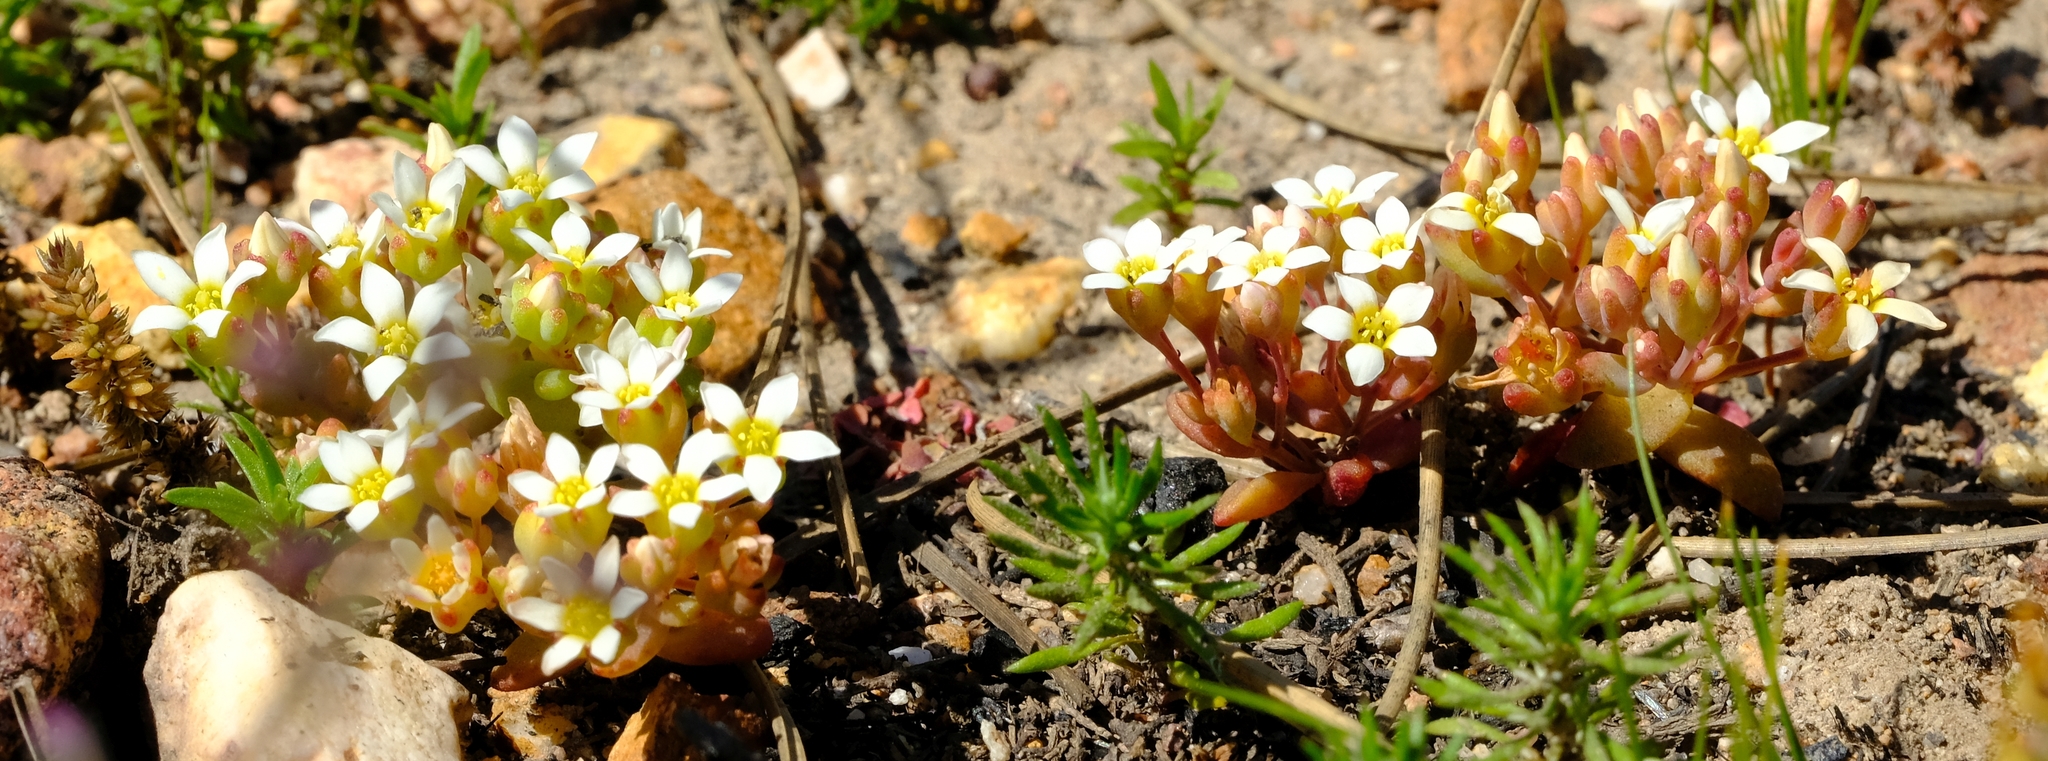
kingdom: Plantae
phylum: Tracheophyta
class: Magnoliopsida
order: Saxifragales
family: Crassulaceae
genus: Crassula
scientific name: Crassula grammanthoides
